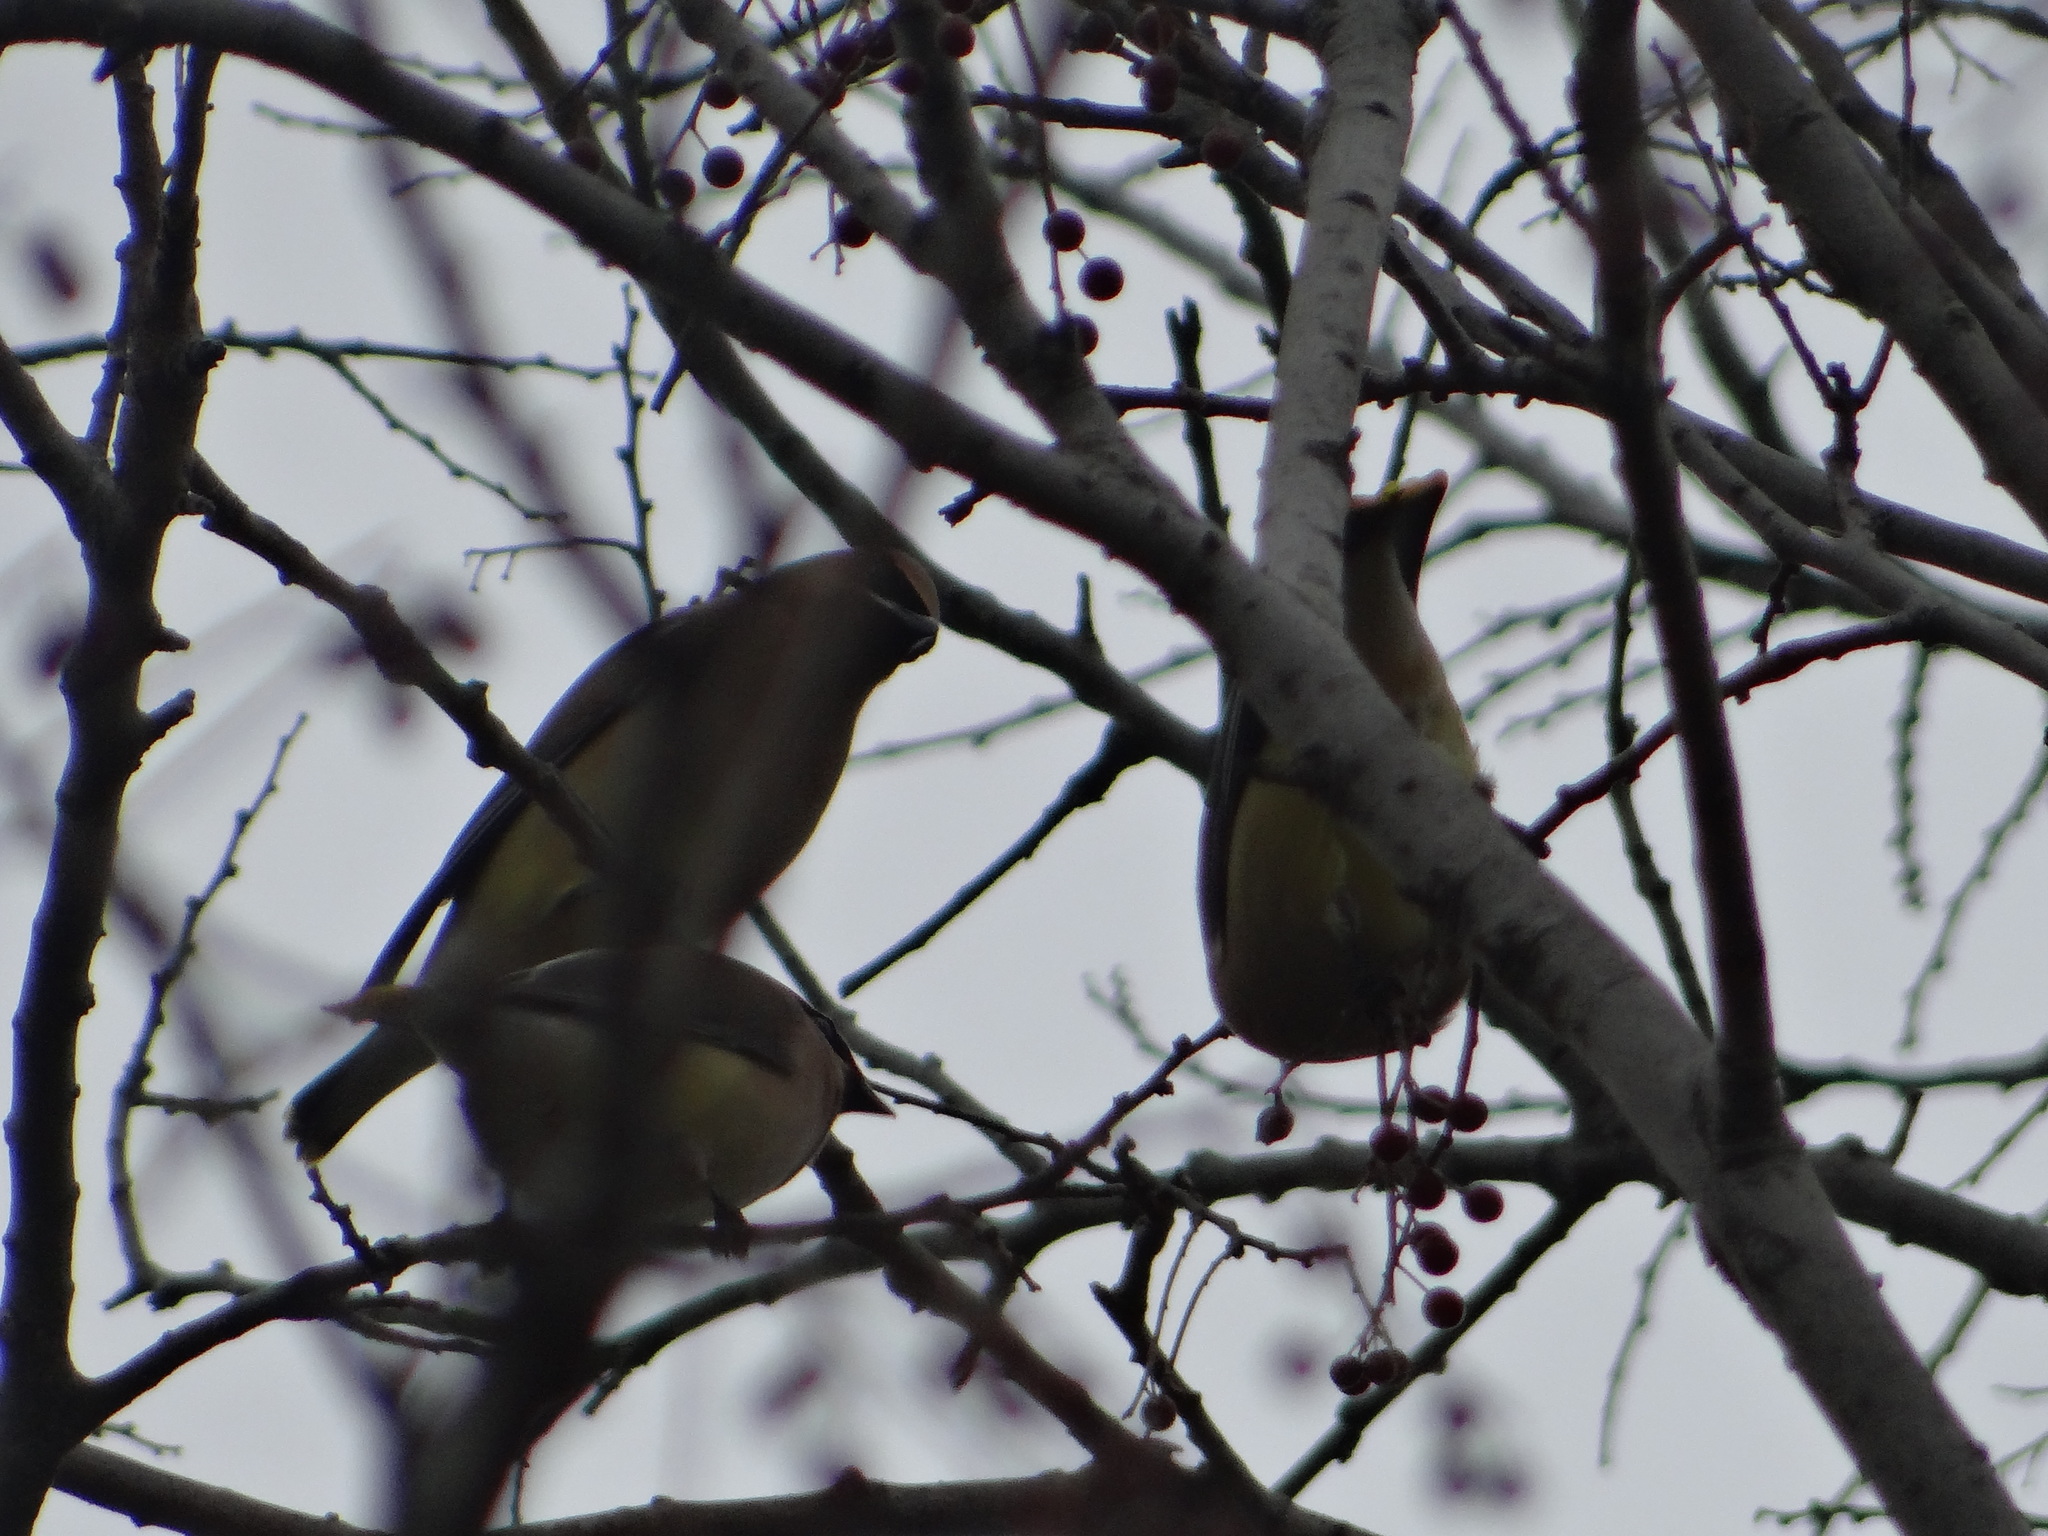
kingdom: Animalia
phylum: Chordata
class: Aves
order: Passeriformes
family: Bombycillidae
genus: Bombycilla
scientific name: Bombycilla cedrorum
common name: Cedar waxwing
